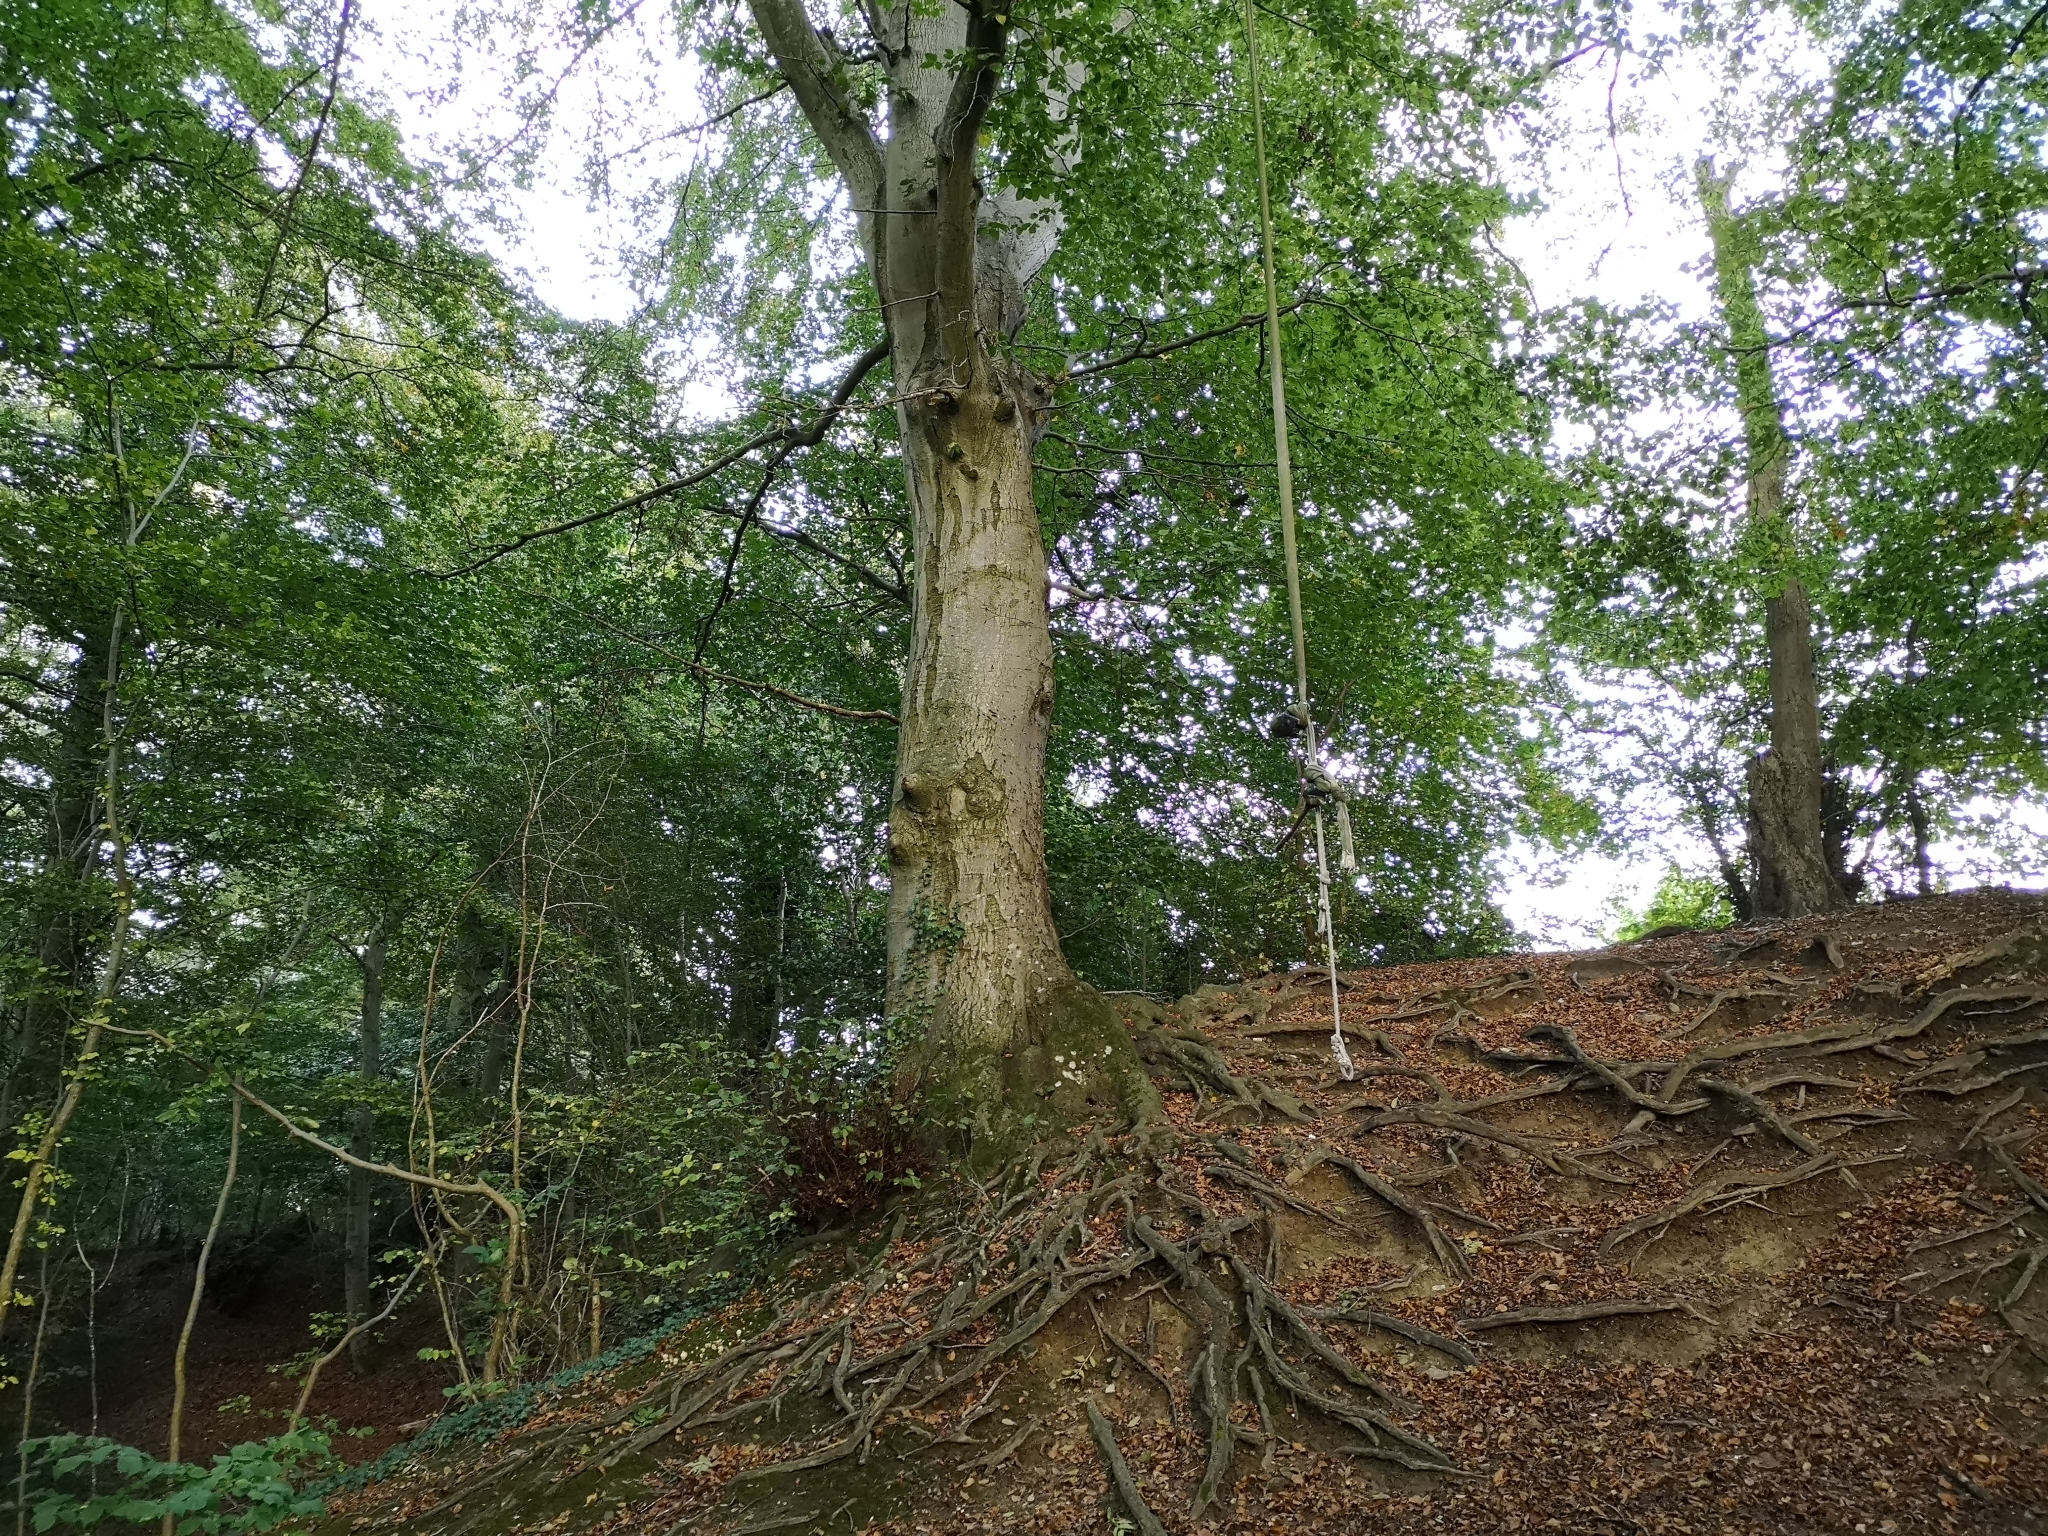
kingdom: Plantae
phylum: Tracheophyta
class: Magnoliopsida
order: Fagales
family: Fagaceae
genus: Fagus
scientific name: Fagus sylvatica
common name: Beech
